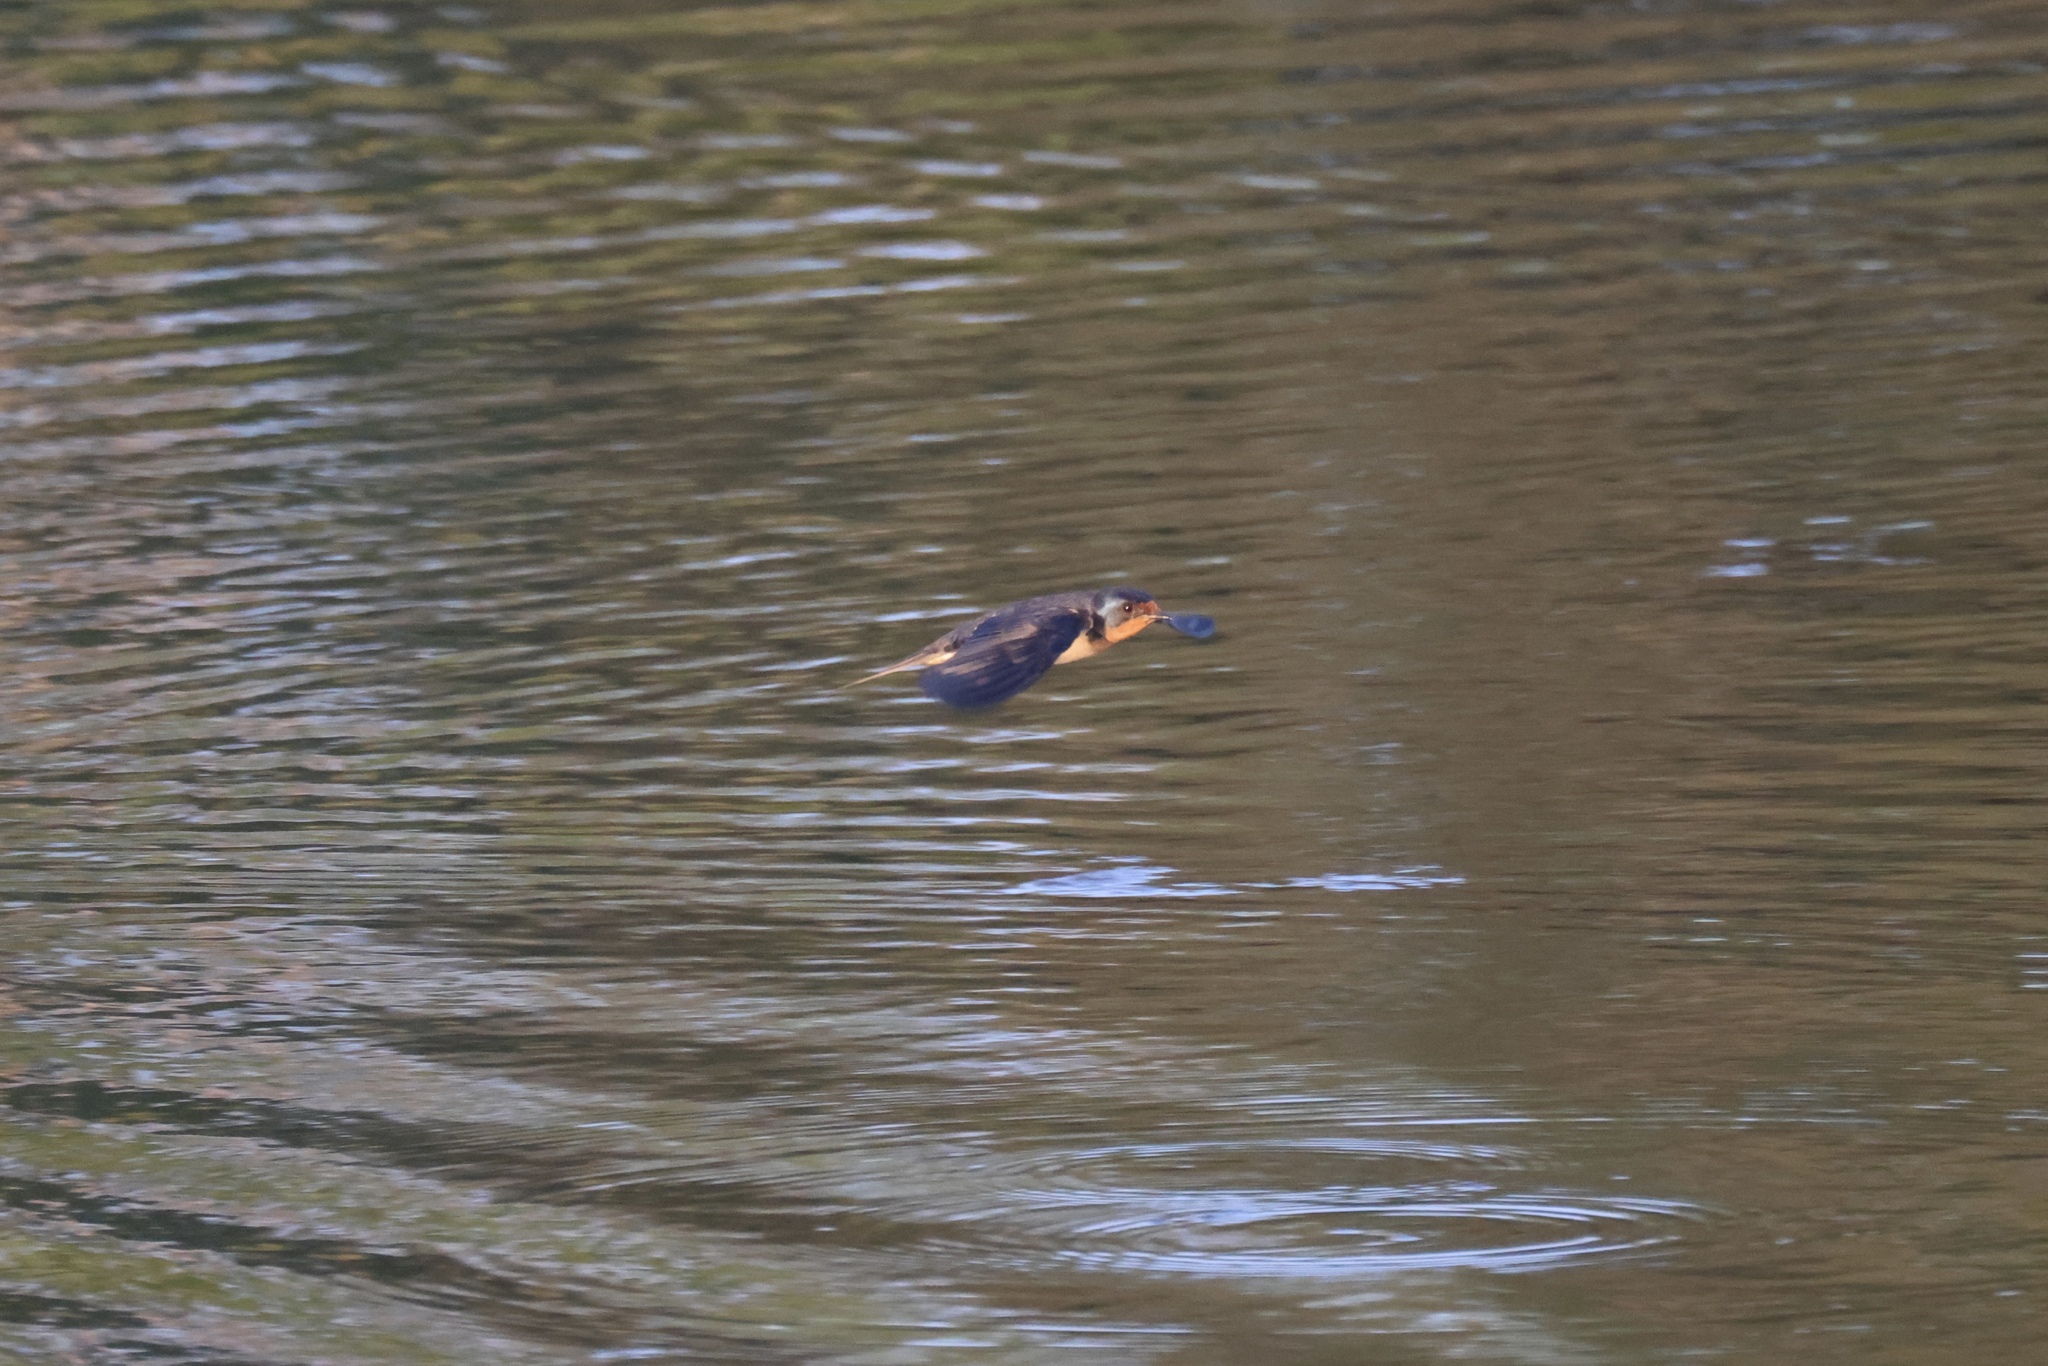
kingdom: Animalia
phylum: Chordata
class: Aves
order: Passeriformes
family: Hirundinidae
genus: Hirundo
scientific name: Hirundo rustica
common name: Barn swallow
